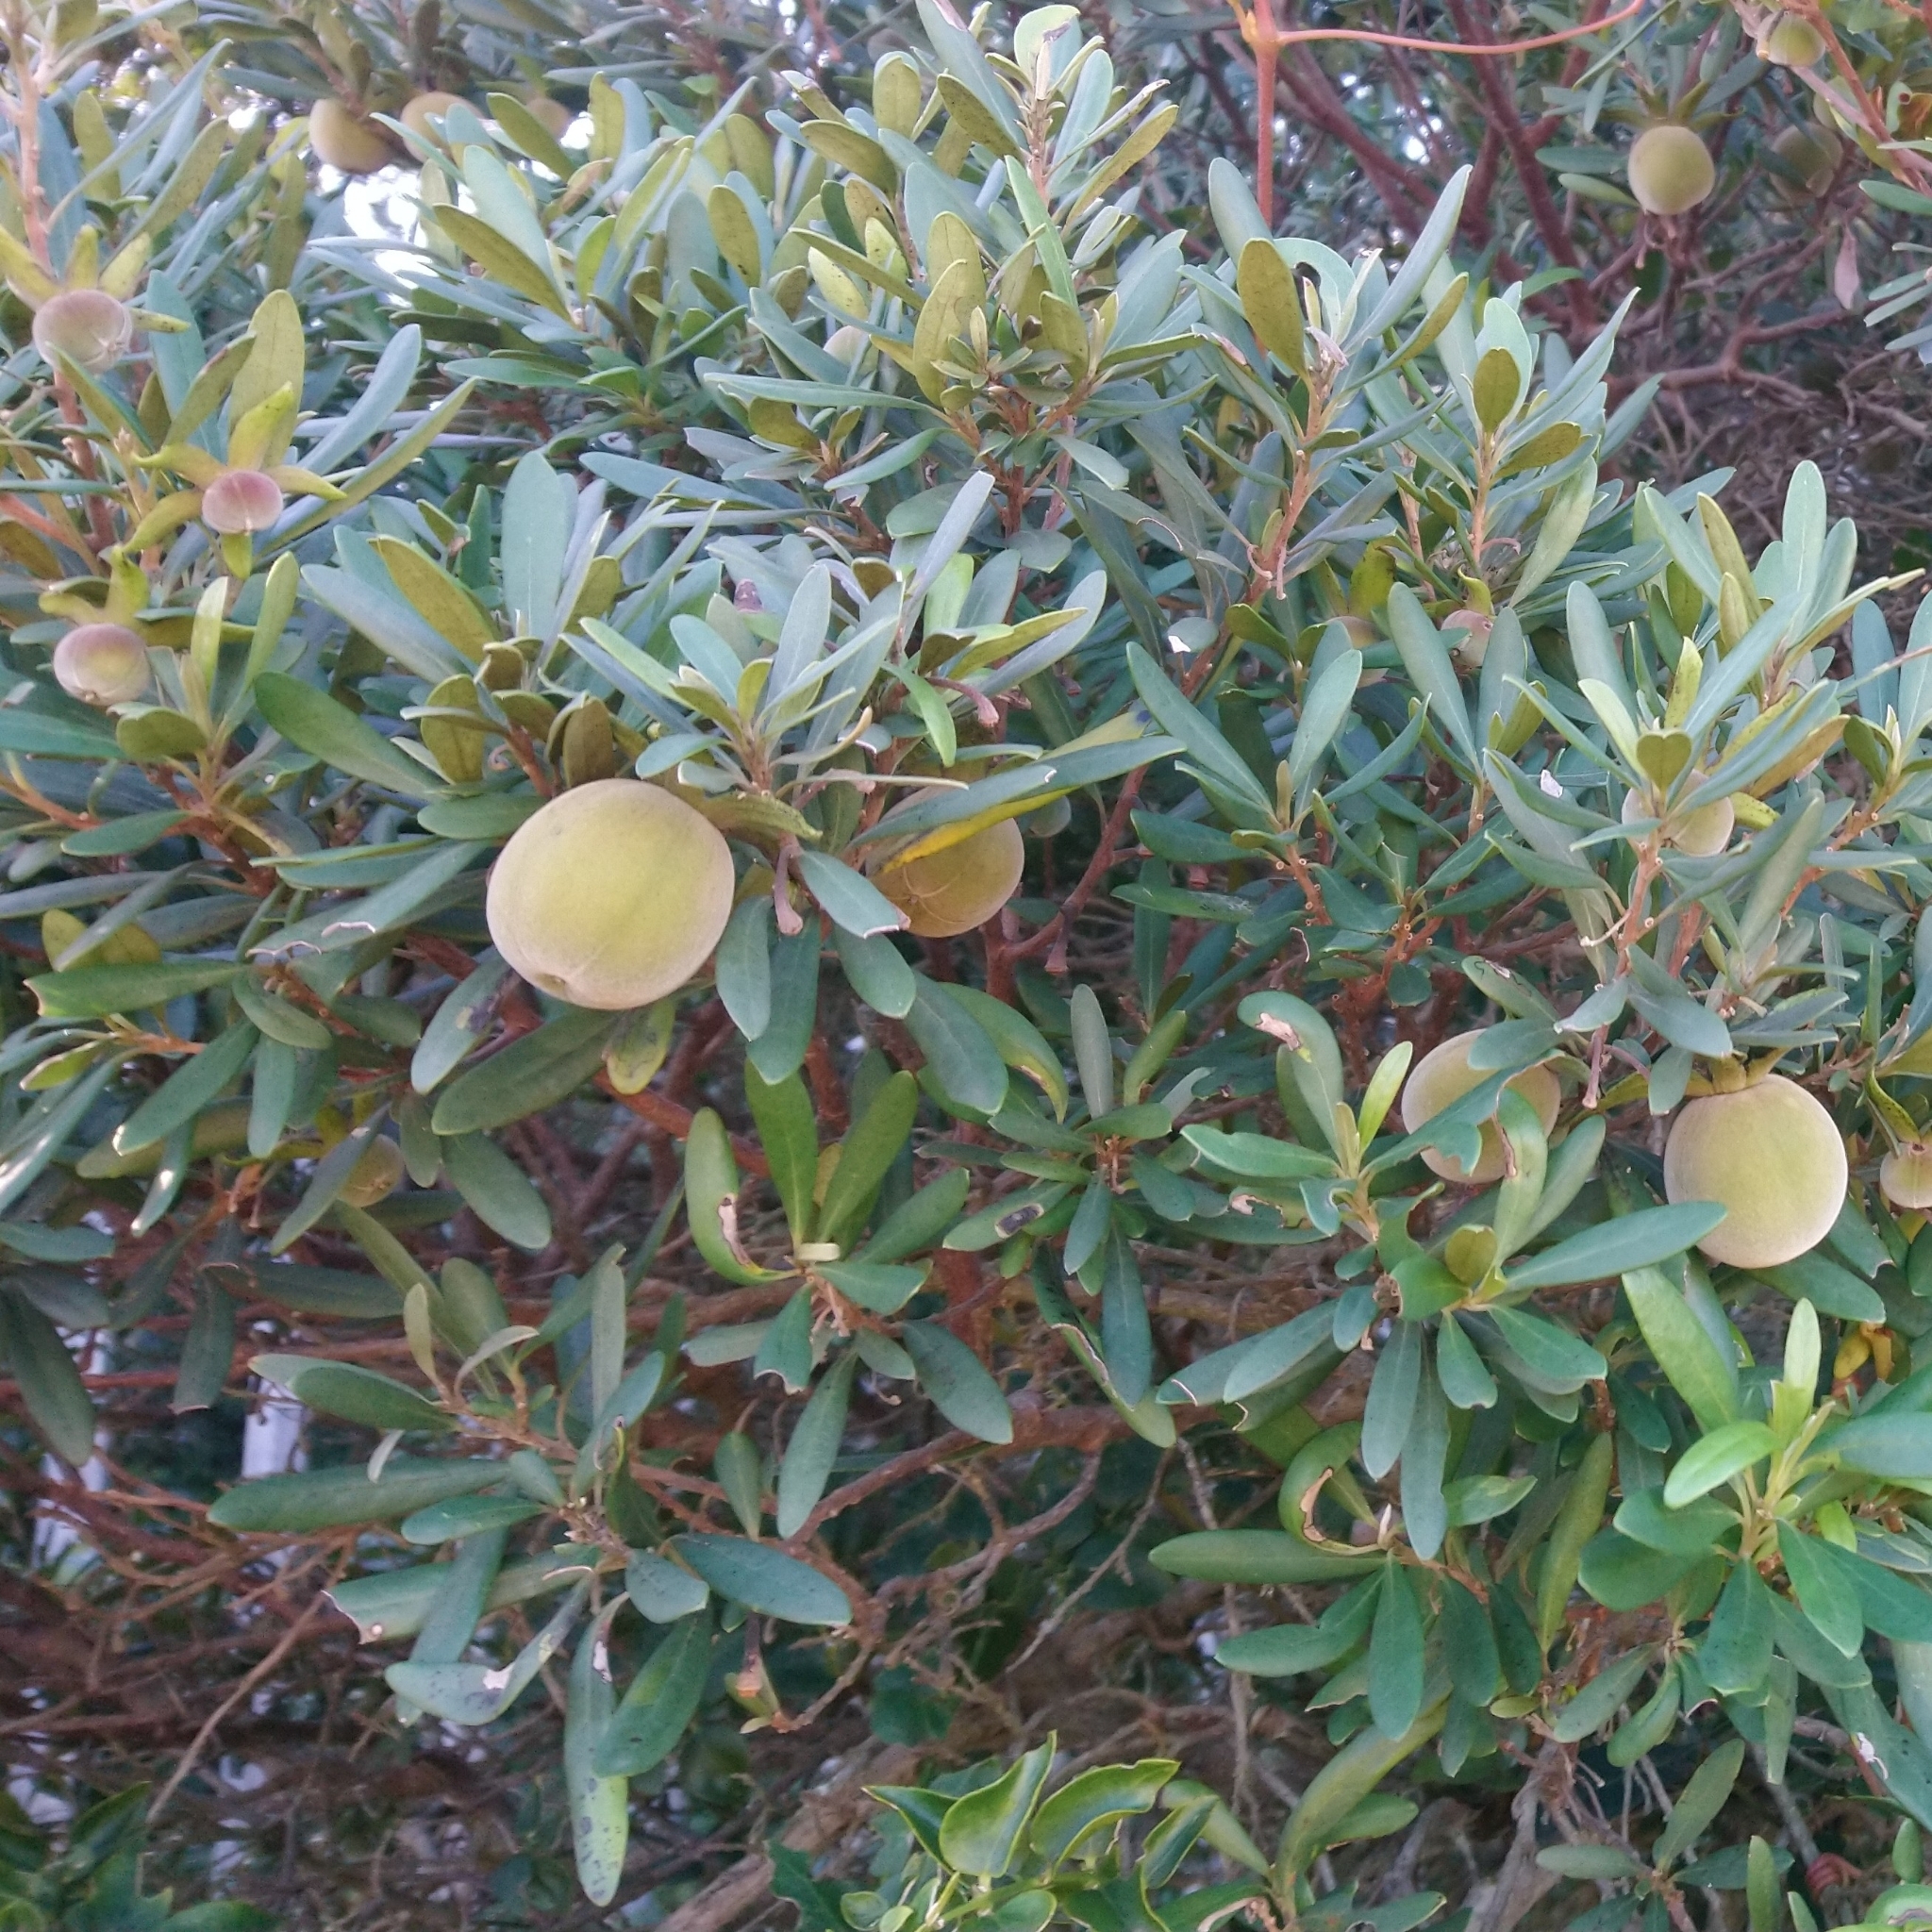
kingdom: Plantae
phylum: Tracheophyta
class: Magnoliopsida
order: Ericales
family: Ebenaceae
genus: Diospyros
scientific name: Diospyros dichrophylla
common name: Common star-apple
